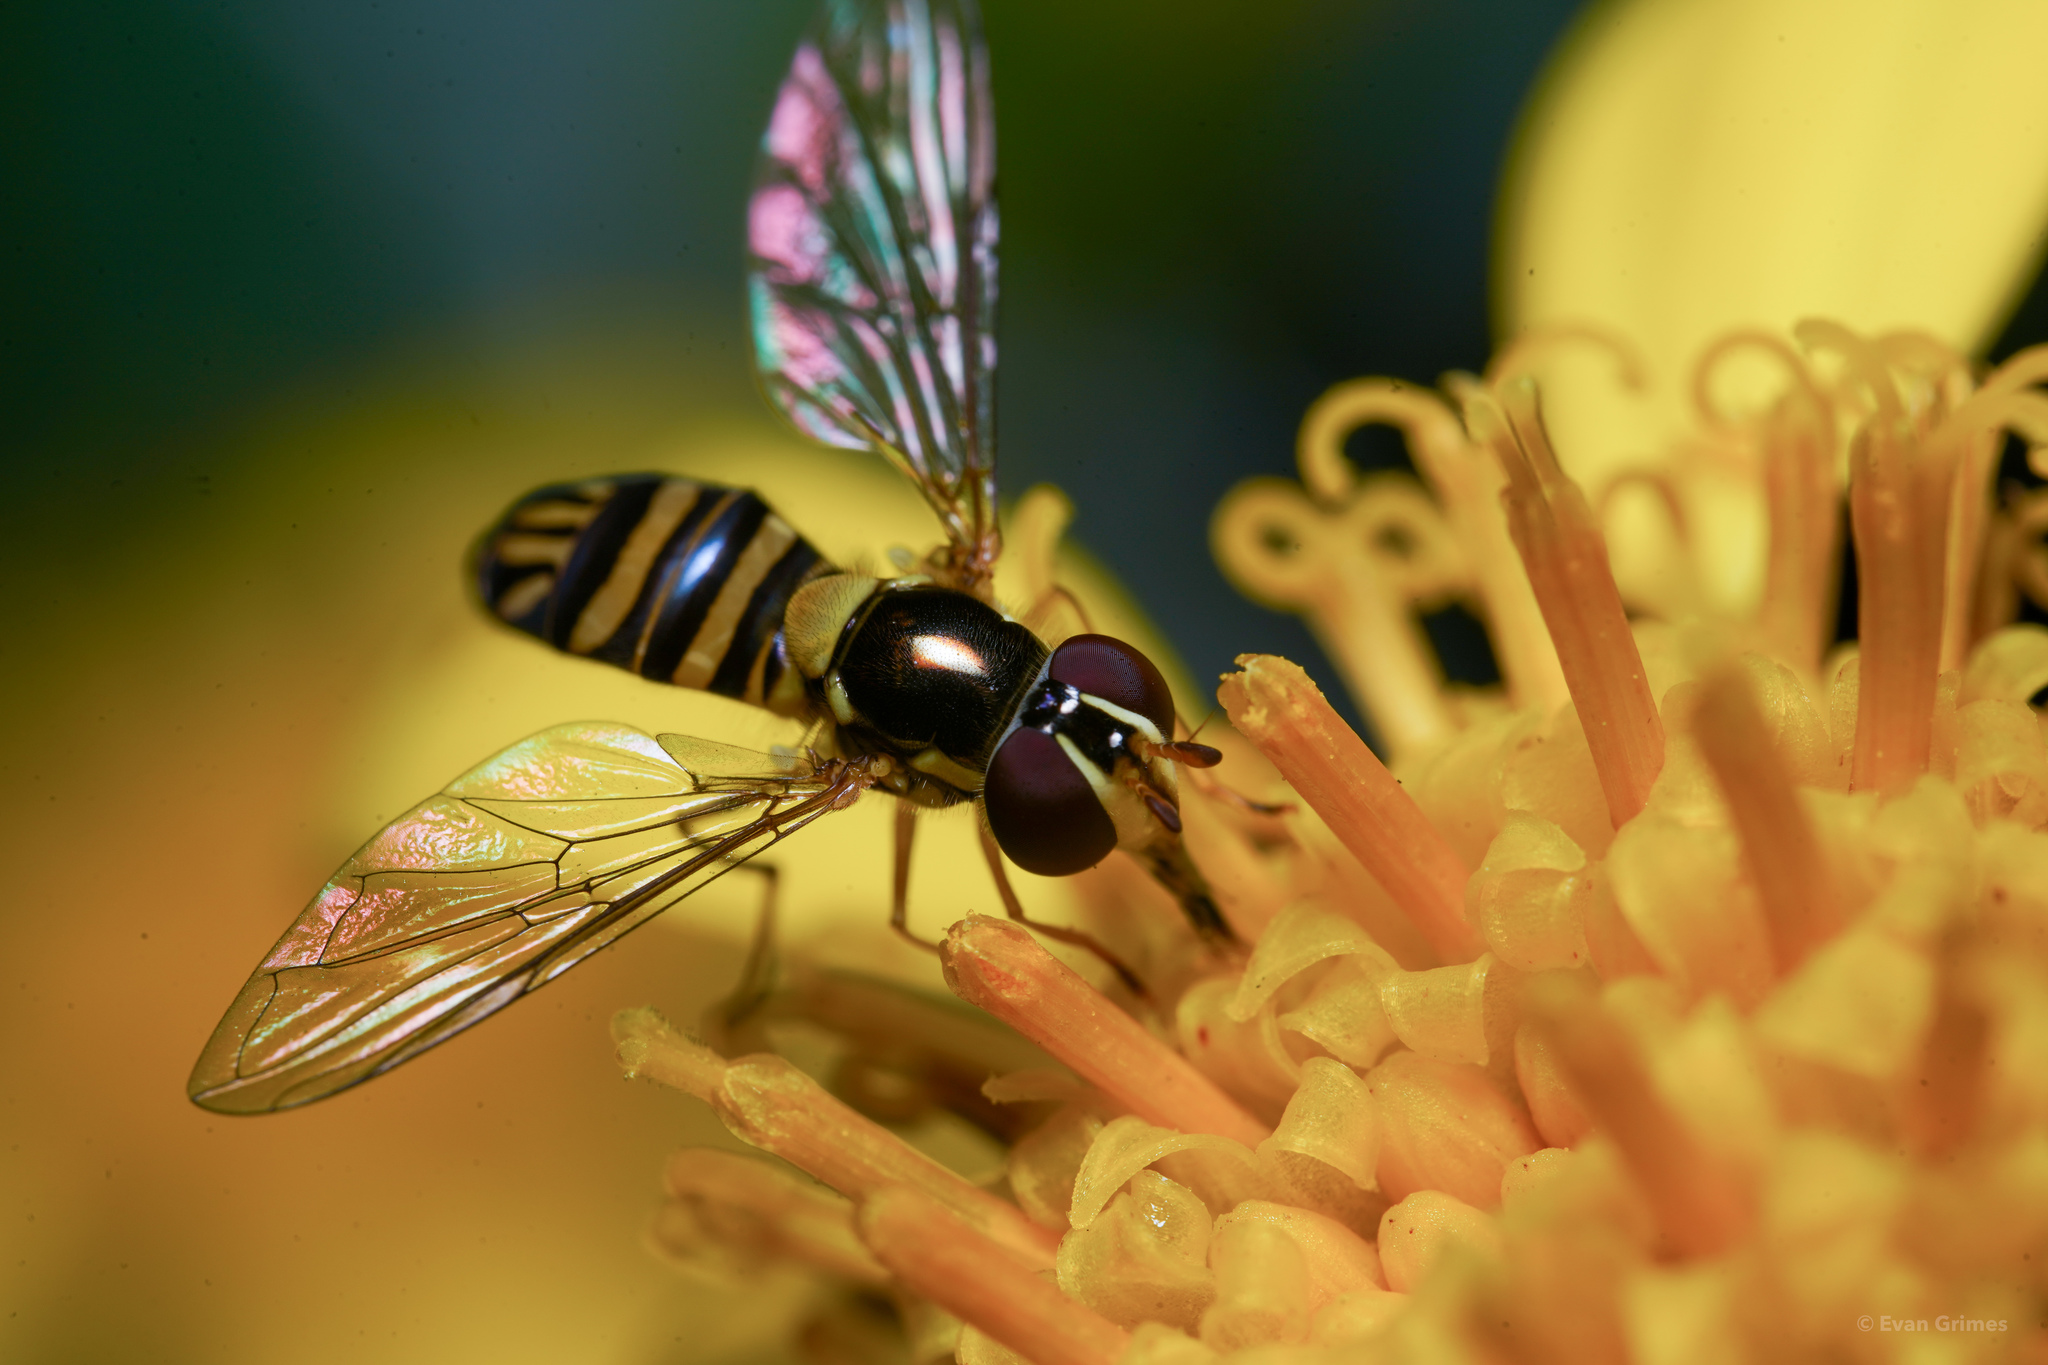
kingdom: Animalia
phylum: Arthropoda
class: Insecta
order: Diptera
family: Syrphidae
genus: Allograpta
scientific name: Allograpta obliqua
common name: Common oblique syrphid
